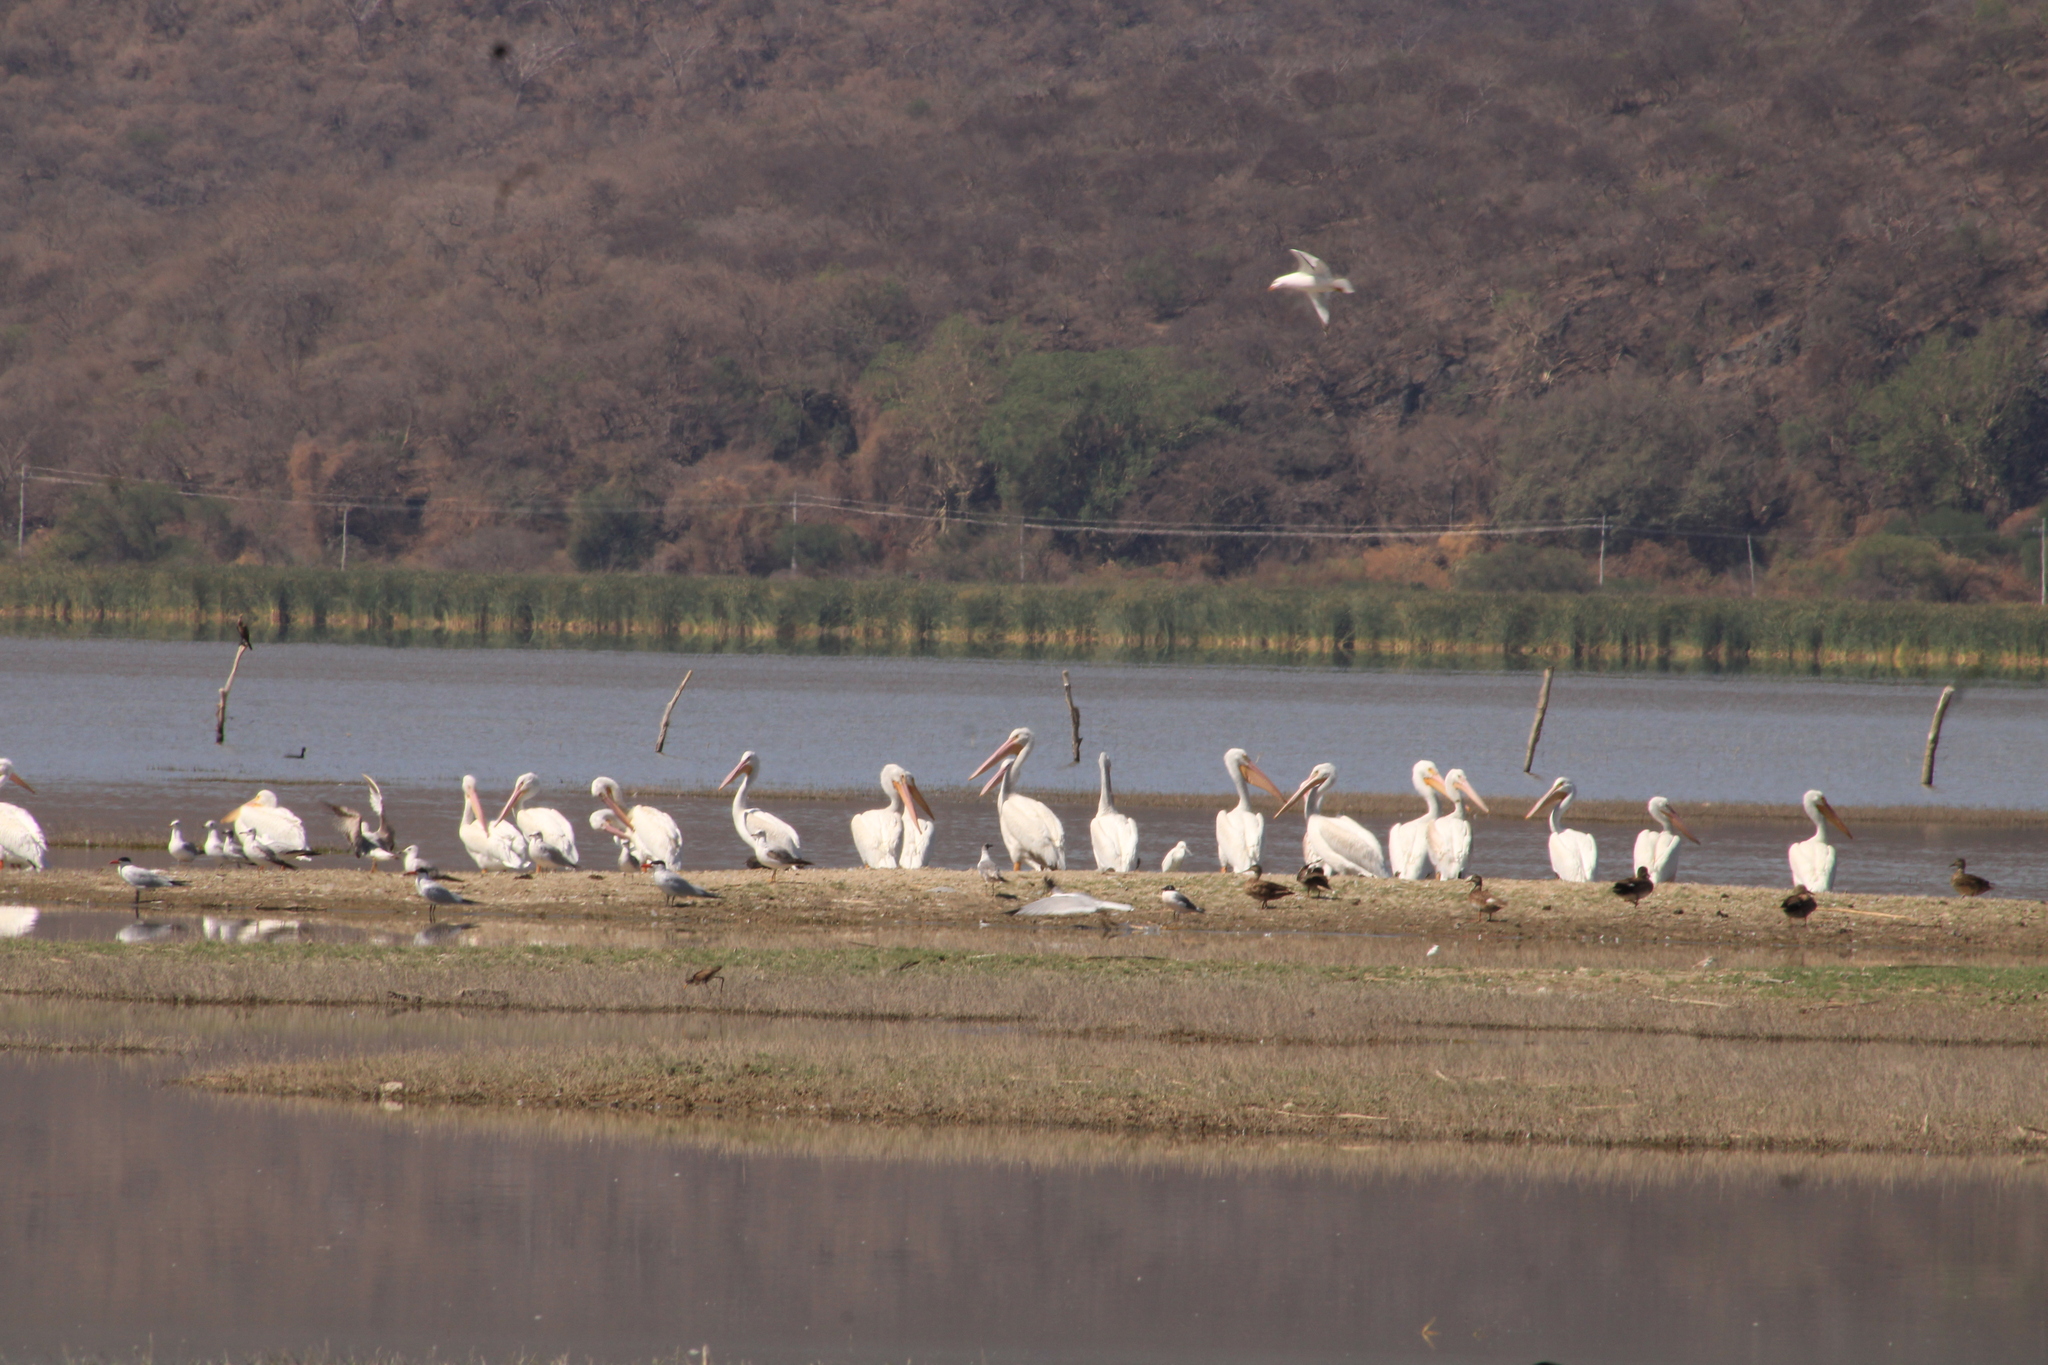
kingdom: Animalia
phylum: Chordata
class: Aves
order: Pelecaniformes
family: Pelecanidae
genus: Pelecanus
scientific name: Pelecanus erythrorhynchos
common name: American white pelican
